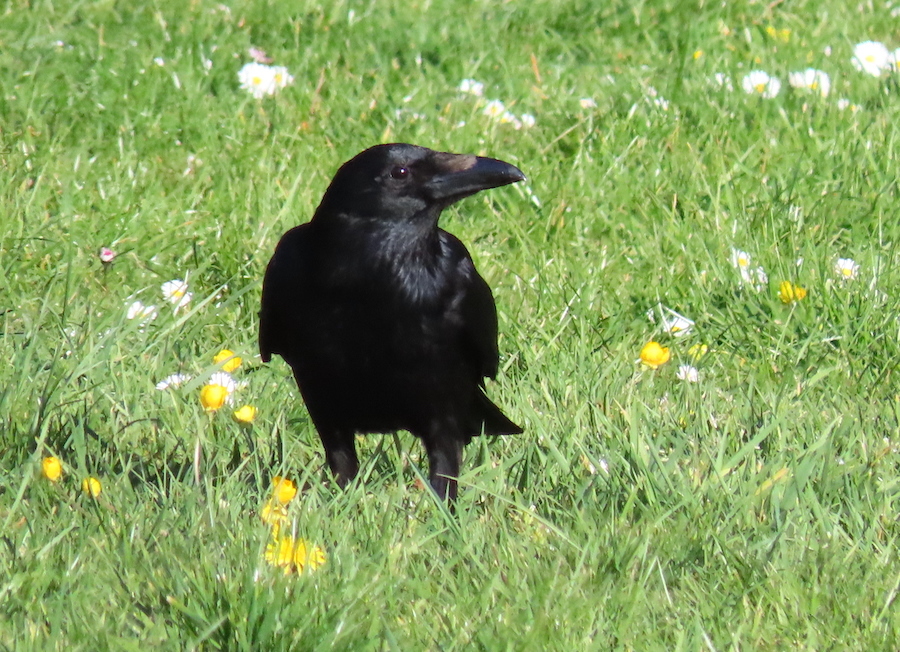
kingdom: Animalia
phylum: Chordata
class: Aves
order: Passeriformes
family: Corvidae
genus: Corvus
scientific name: Corvus corone
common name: Carrion crow
